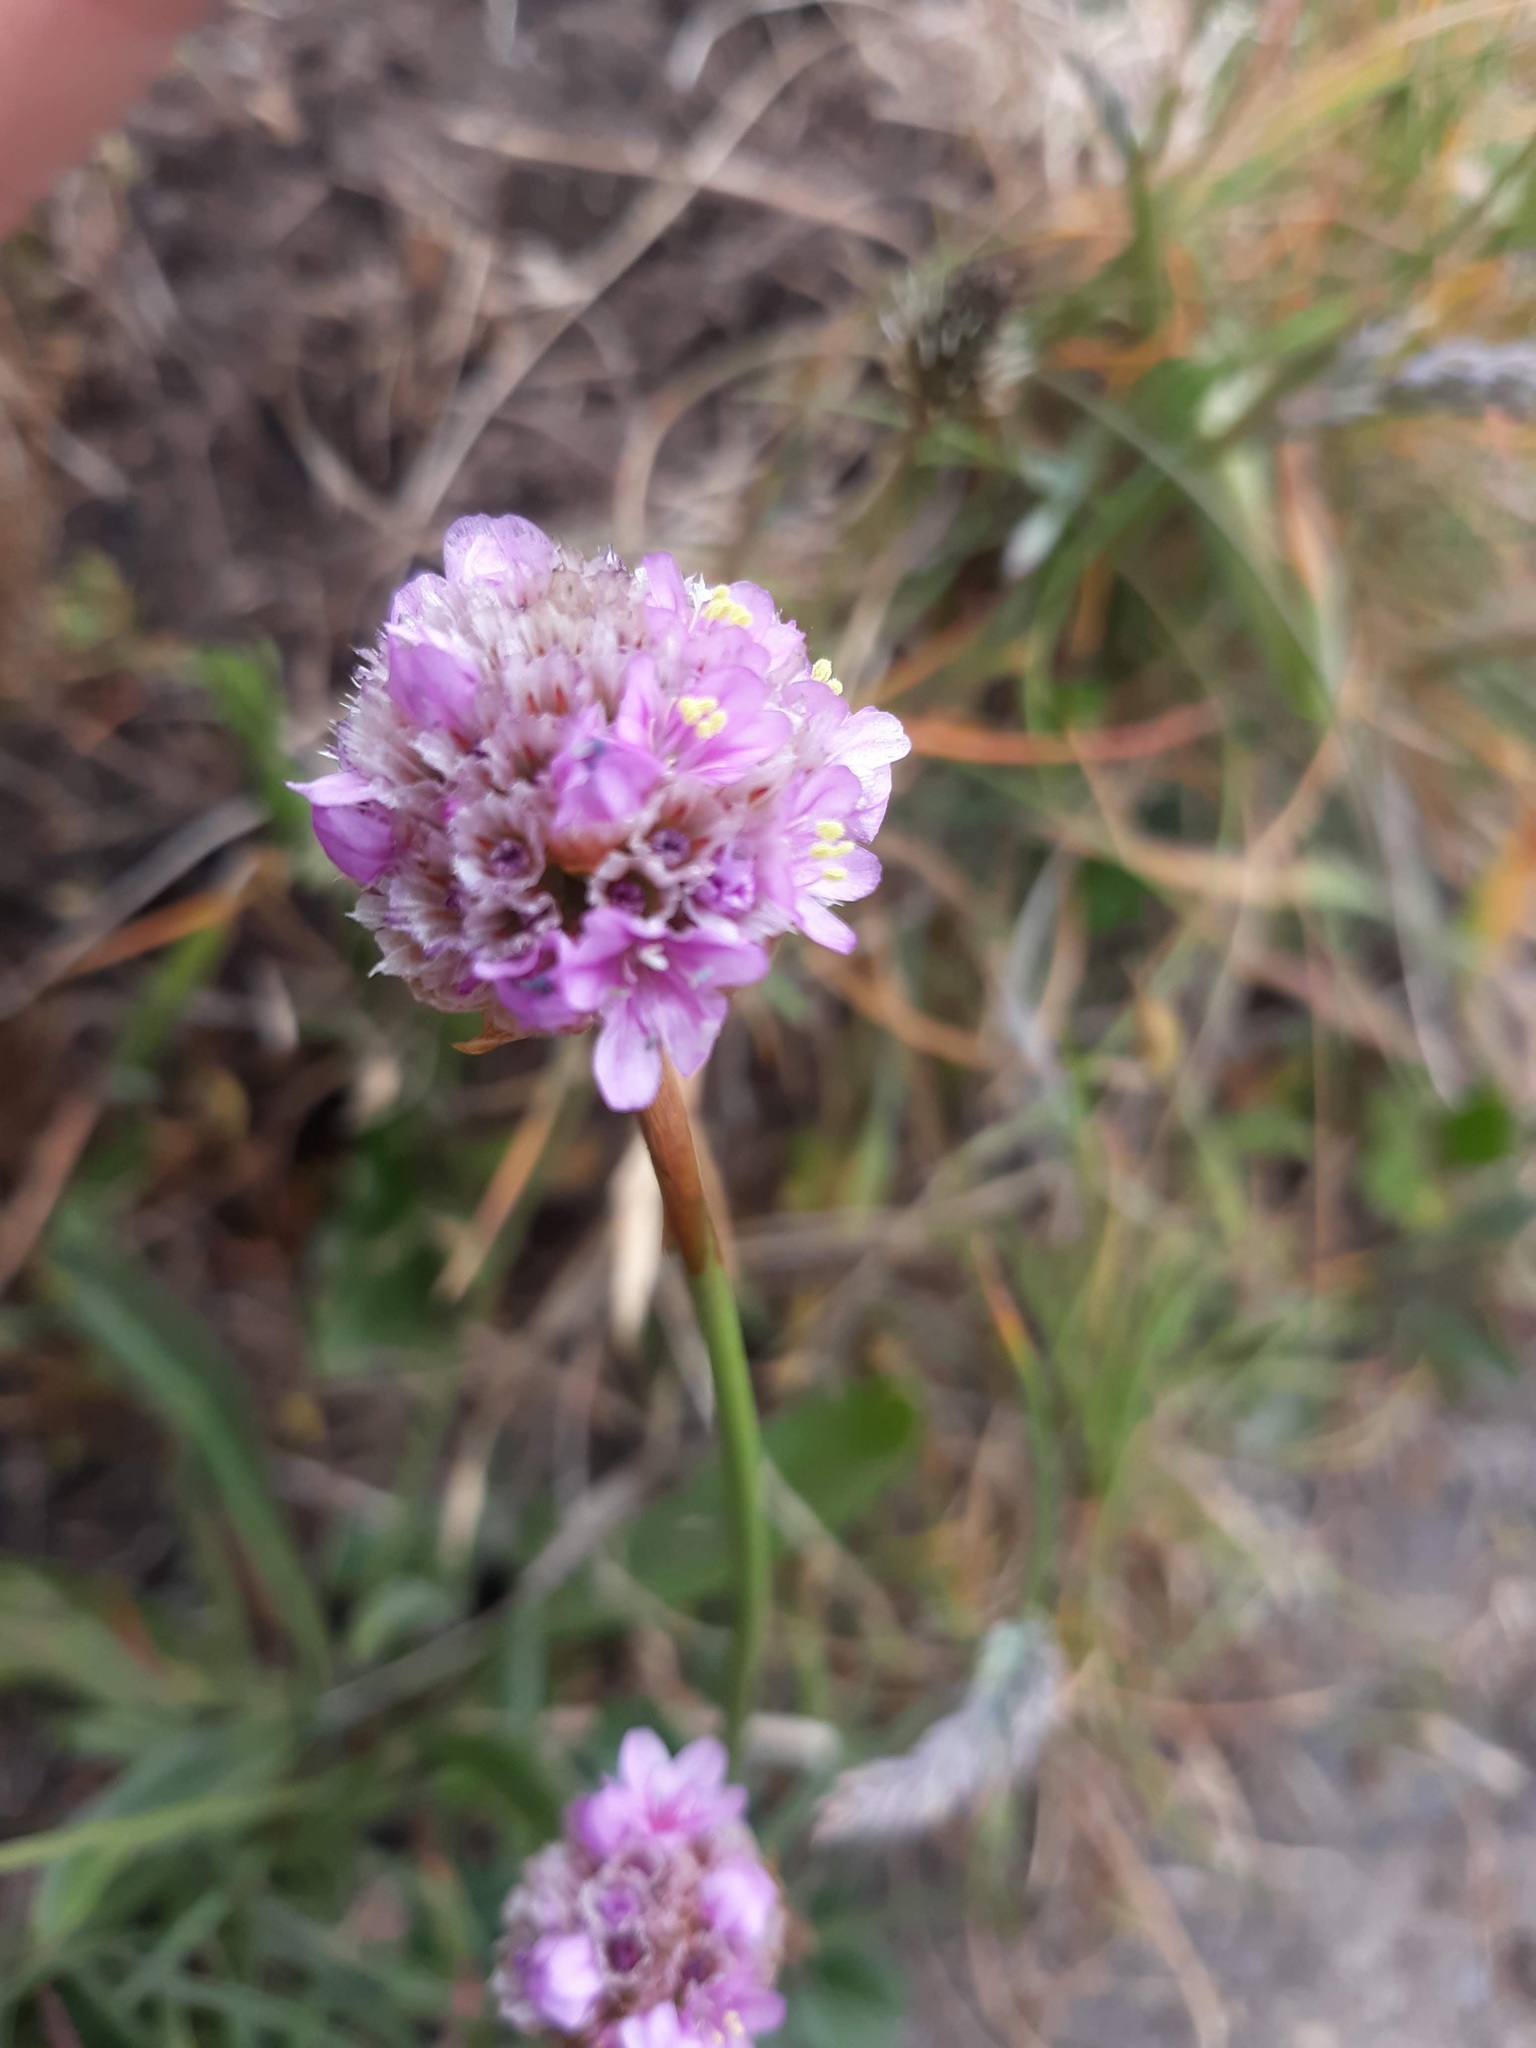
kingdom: Plantae
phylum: Tracheophyta
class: Magnoliopsida
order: Caryophyllales
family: Plumbaginaceae
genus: Armeria
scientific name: Armeria maritima
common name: Thrift
